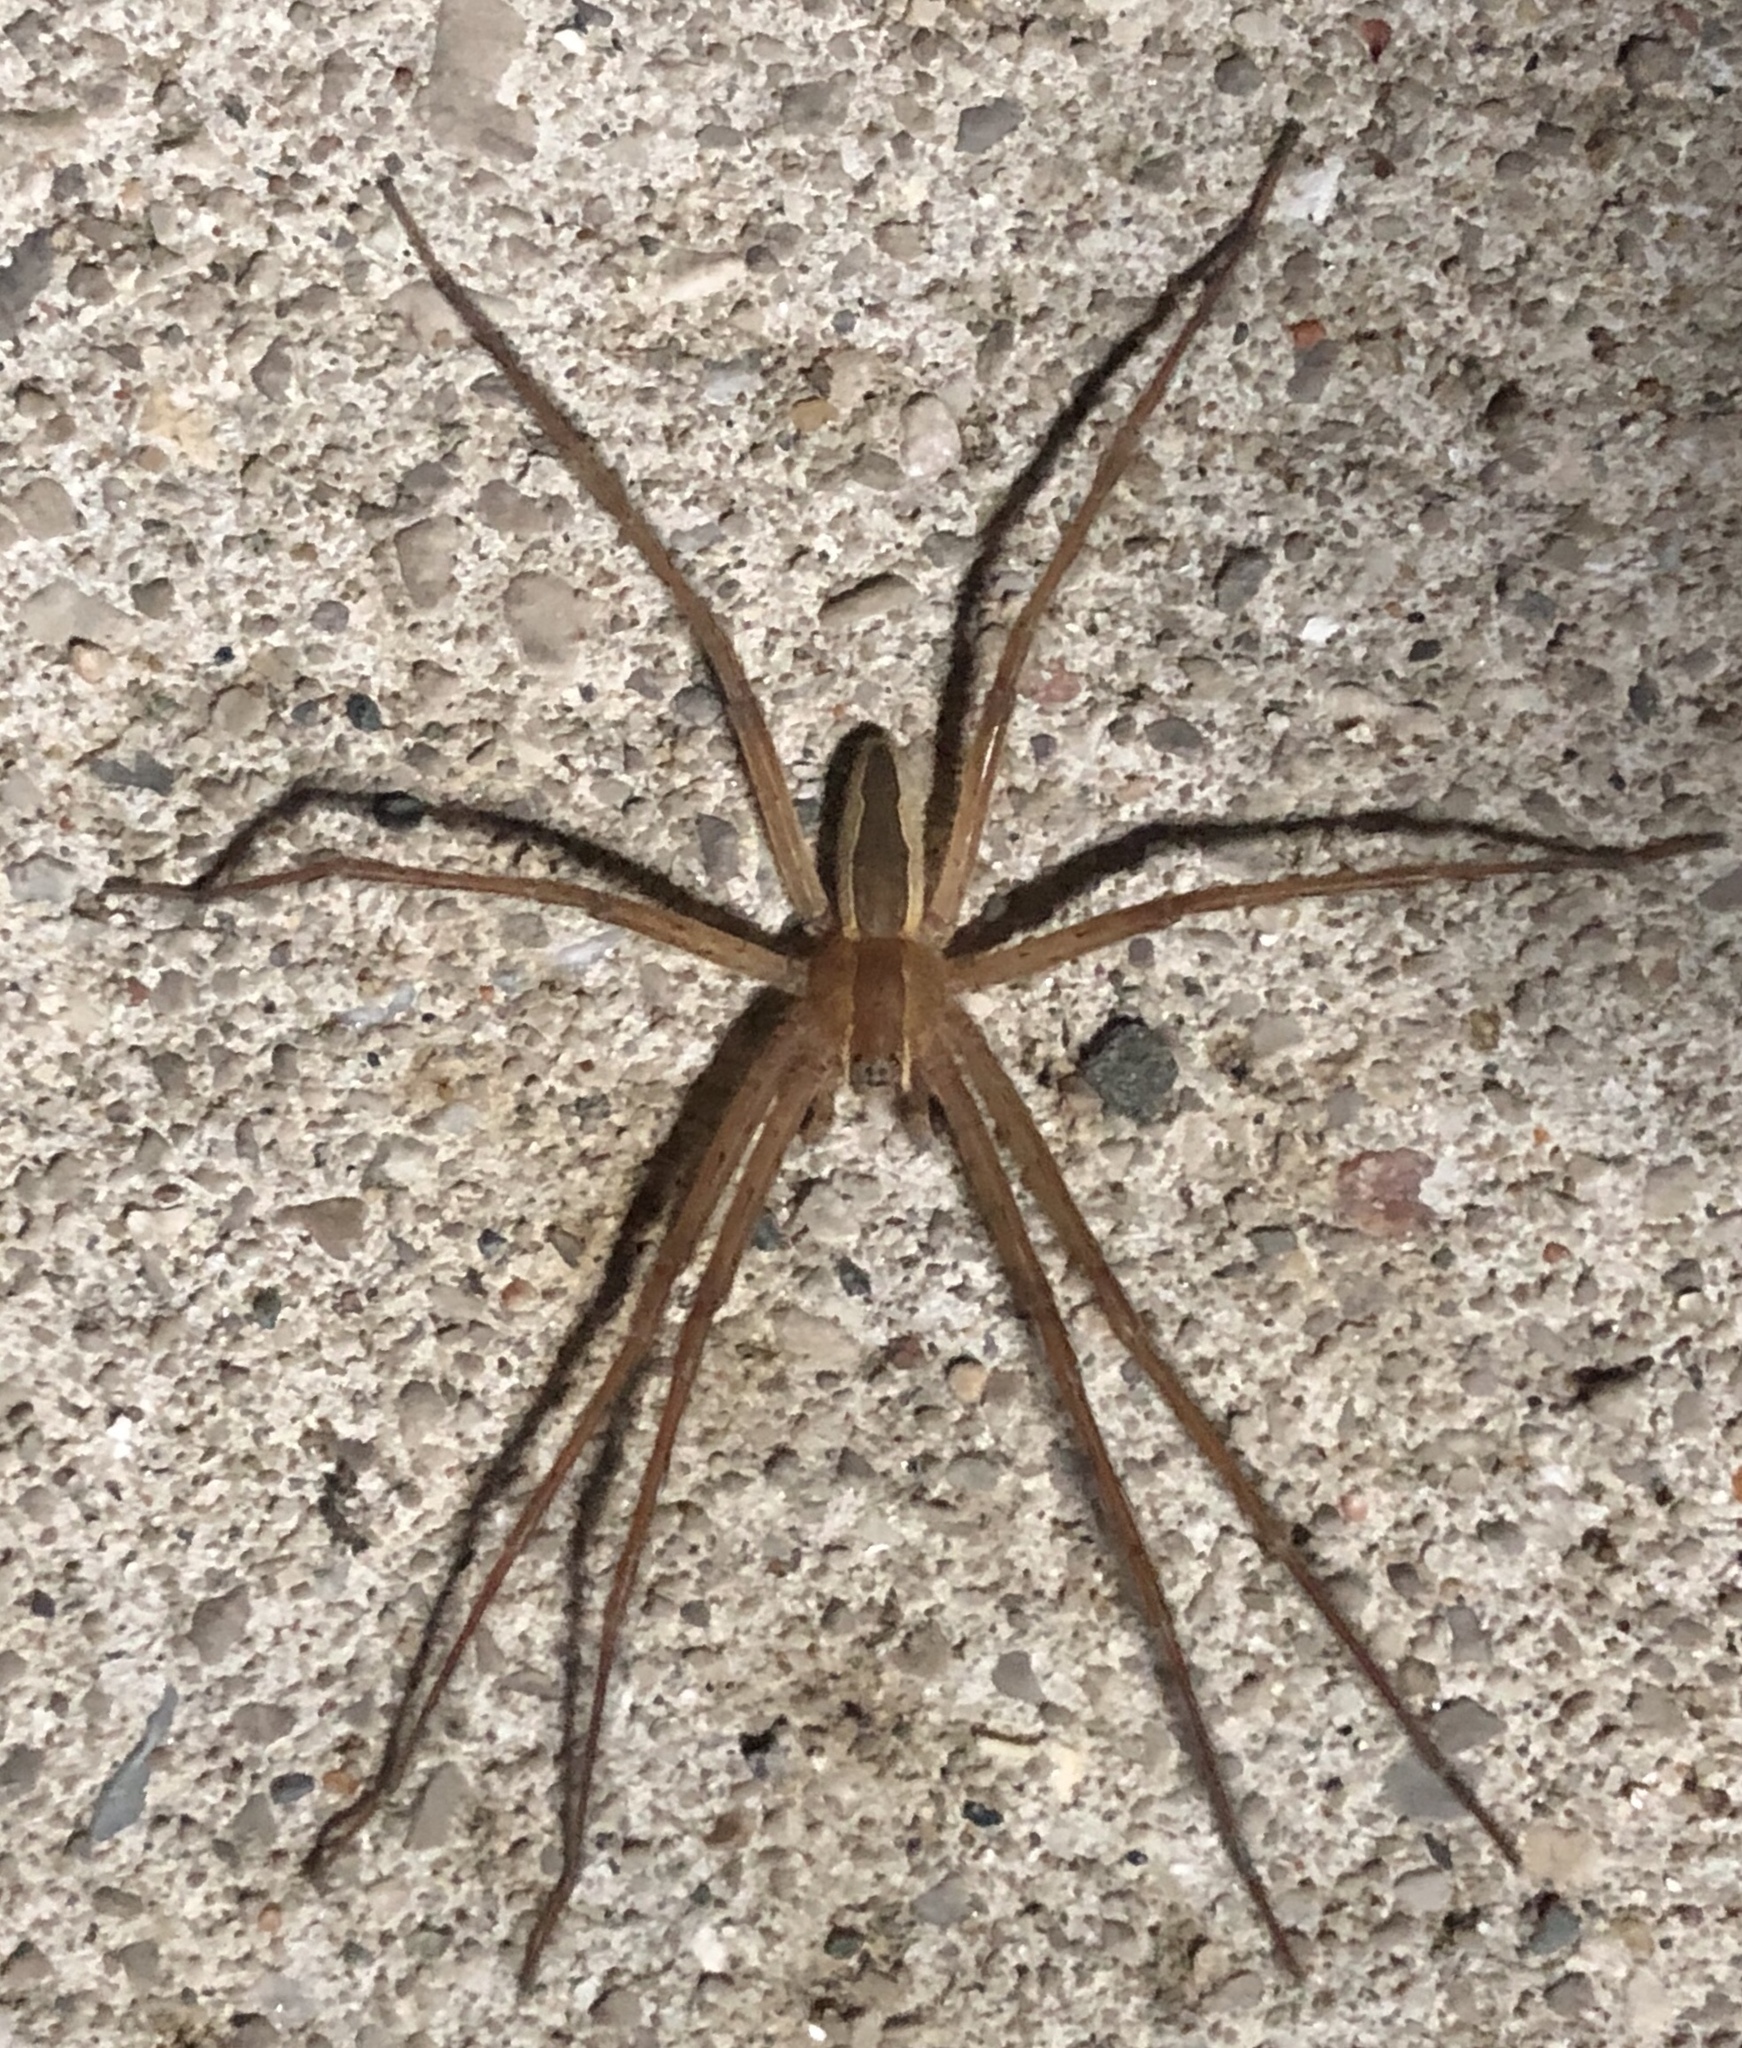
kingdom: Animalia
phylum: Arthropoda
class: Arachnida
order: Araneae
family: Pisauridae
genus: Pisaurina
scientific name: Pisaurina mira
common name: American nursery web spider
